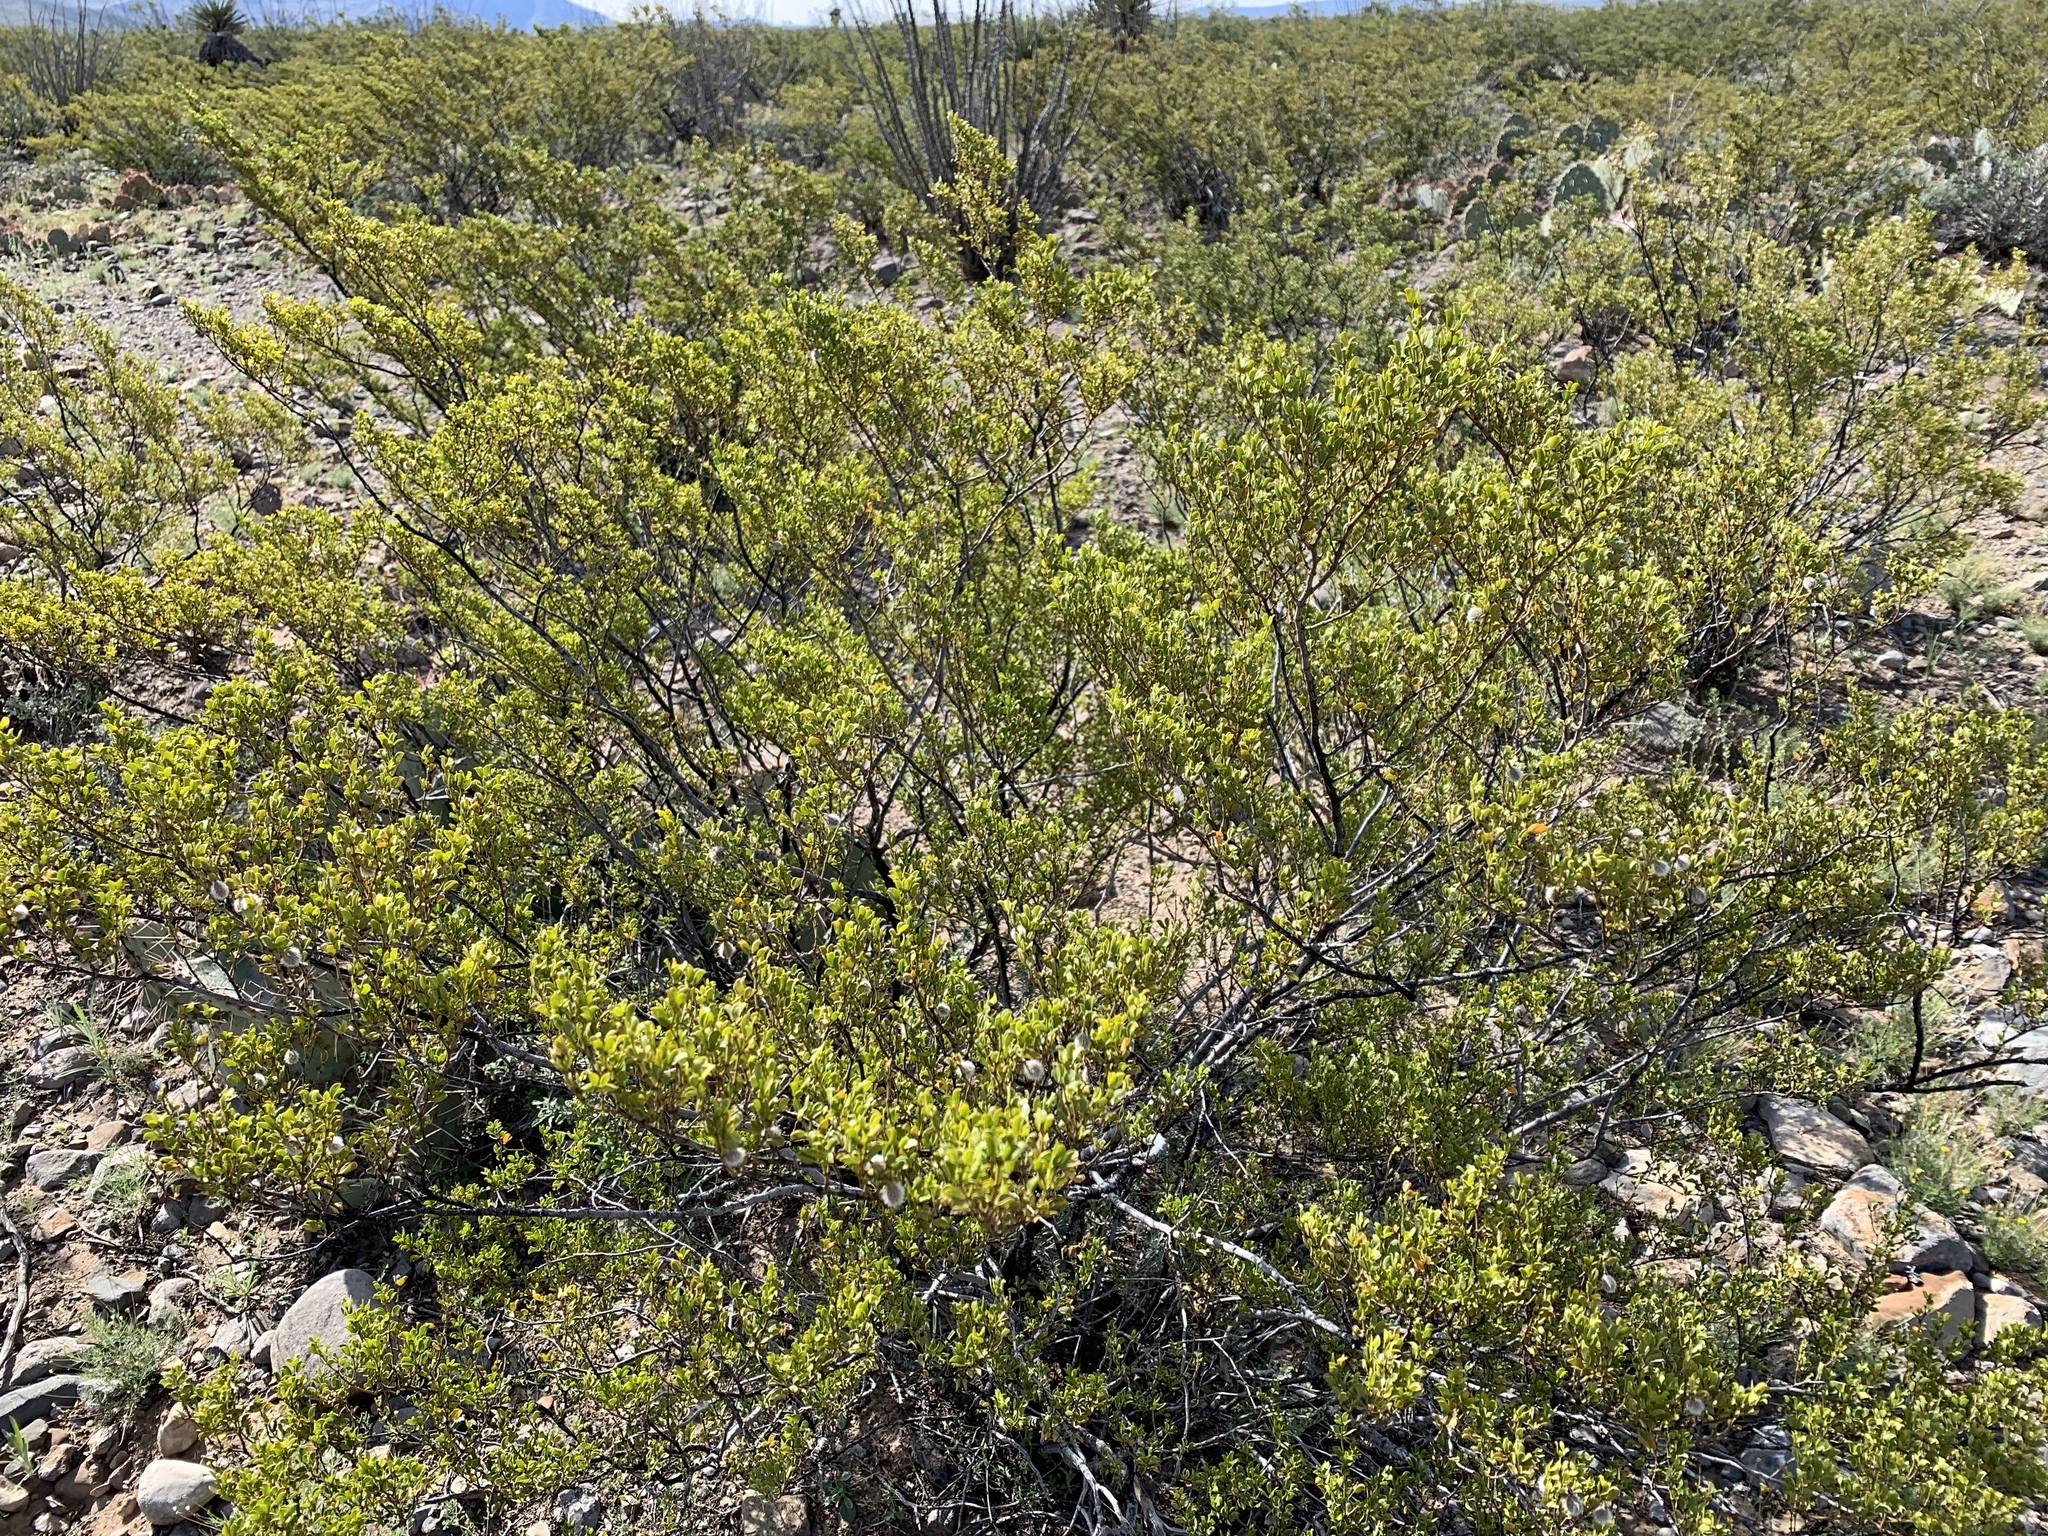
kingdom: Plantae
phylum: Tracheophyta
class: Magnoliopsida
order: Zygophyllales
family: Zygophyllaceae
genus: Larrea
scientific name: Larrea tridentata
